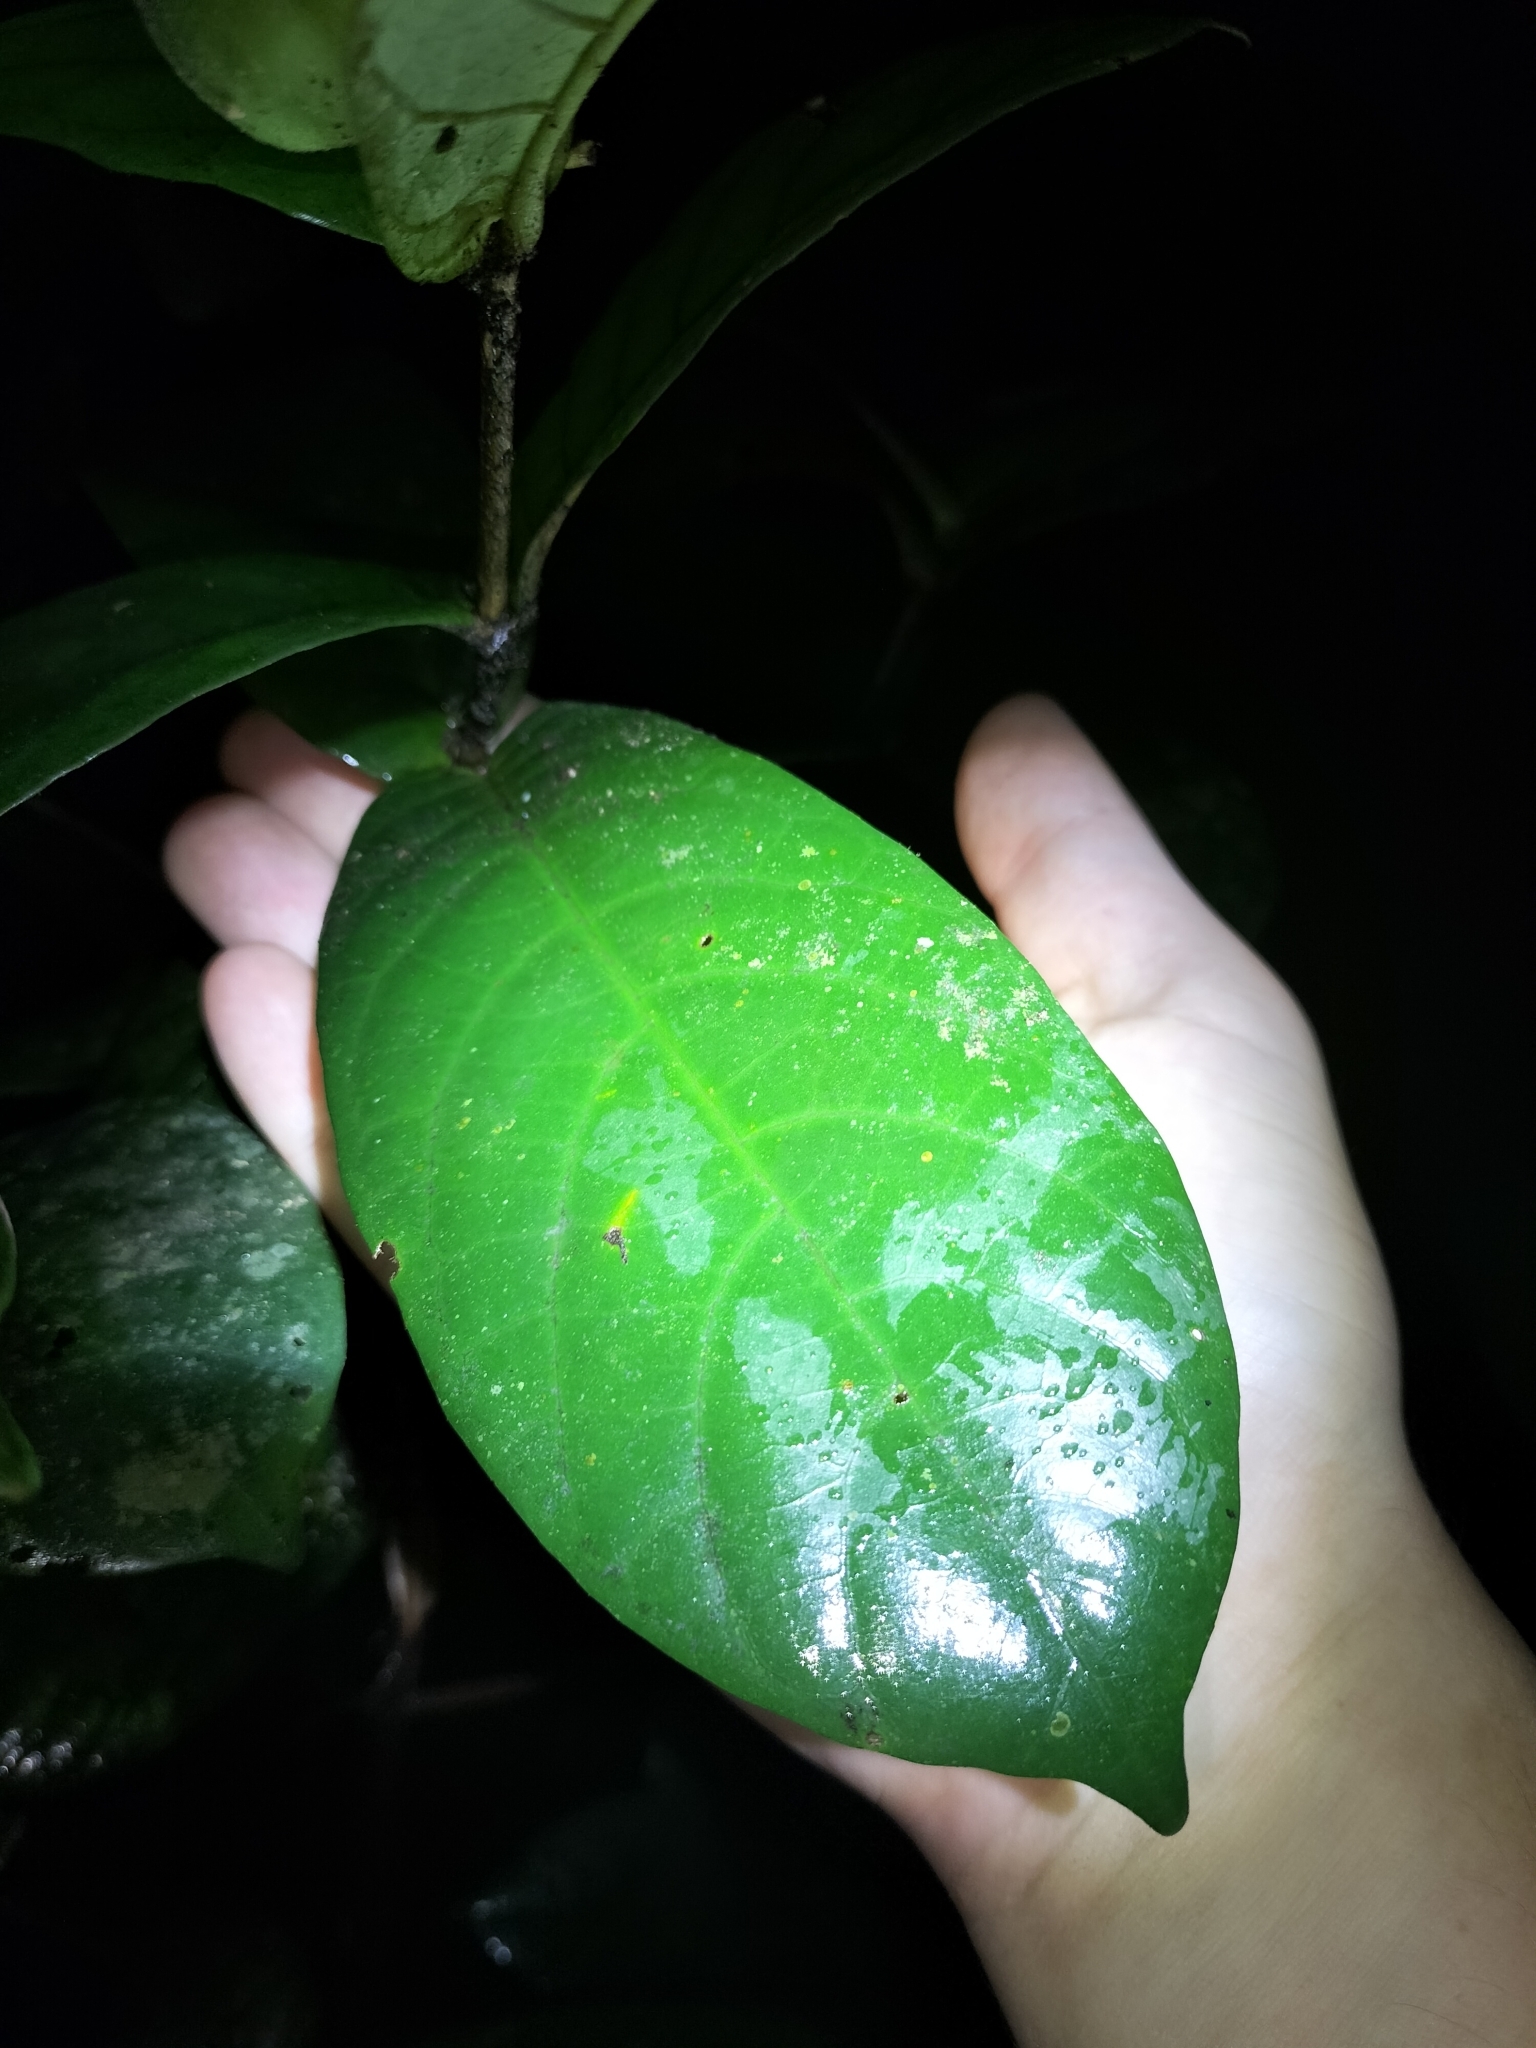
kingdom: Plantae
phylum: Tracheophyta
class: Magnoliopsida
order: Gentianales
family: Rubiaceae
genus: Atractocarpus
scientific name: Atractocarpus merikin
